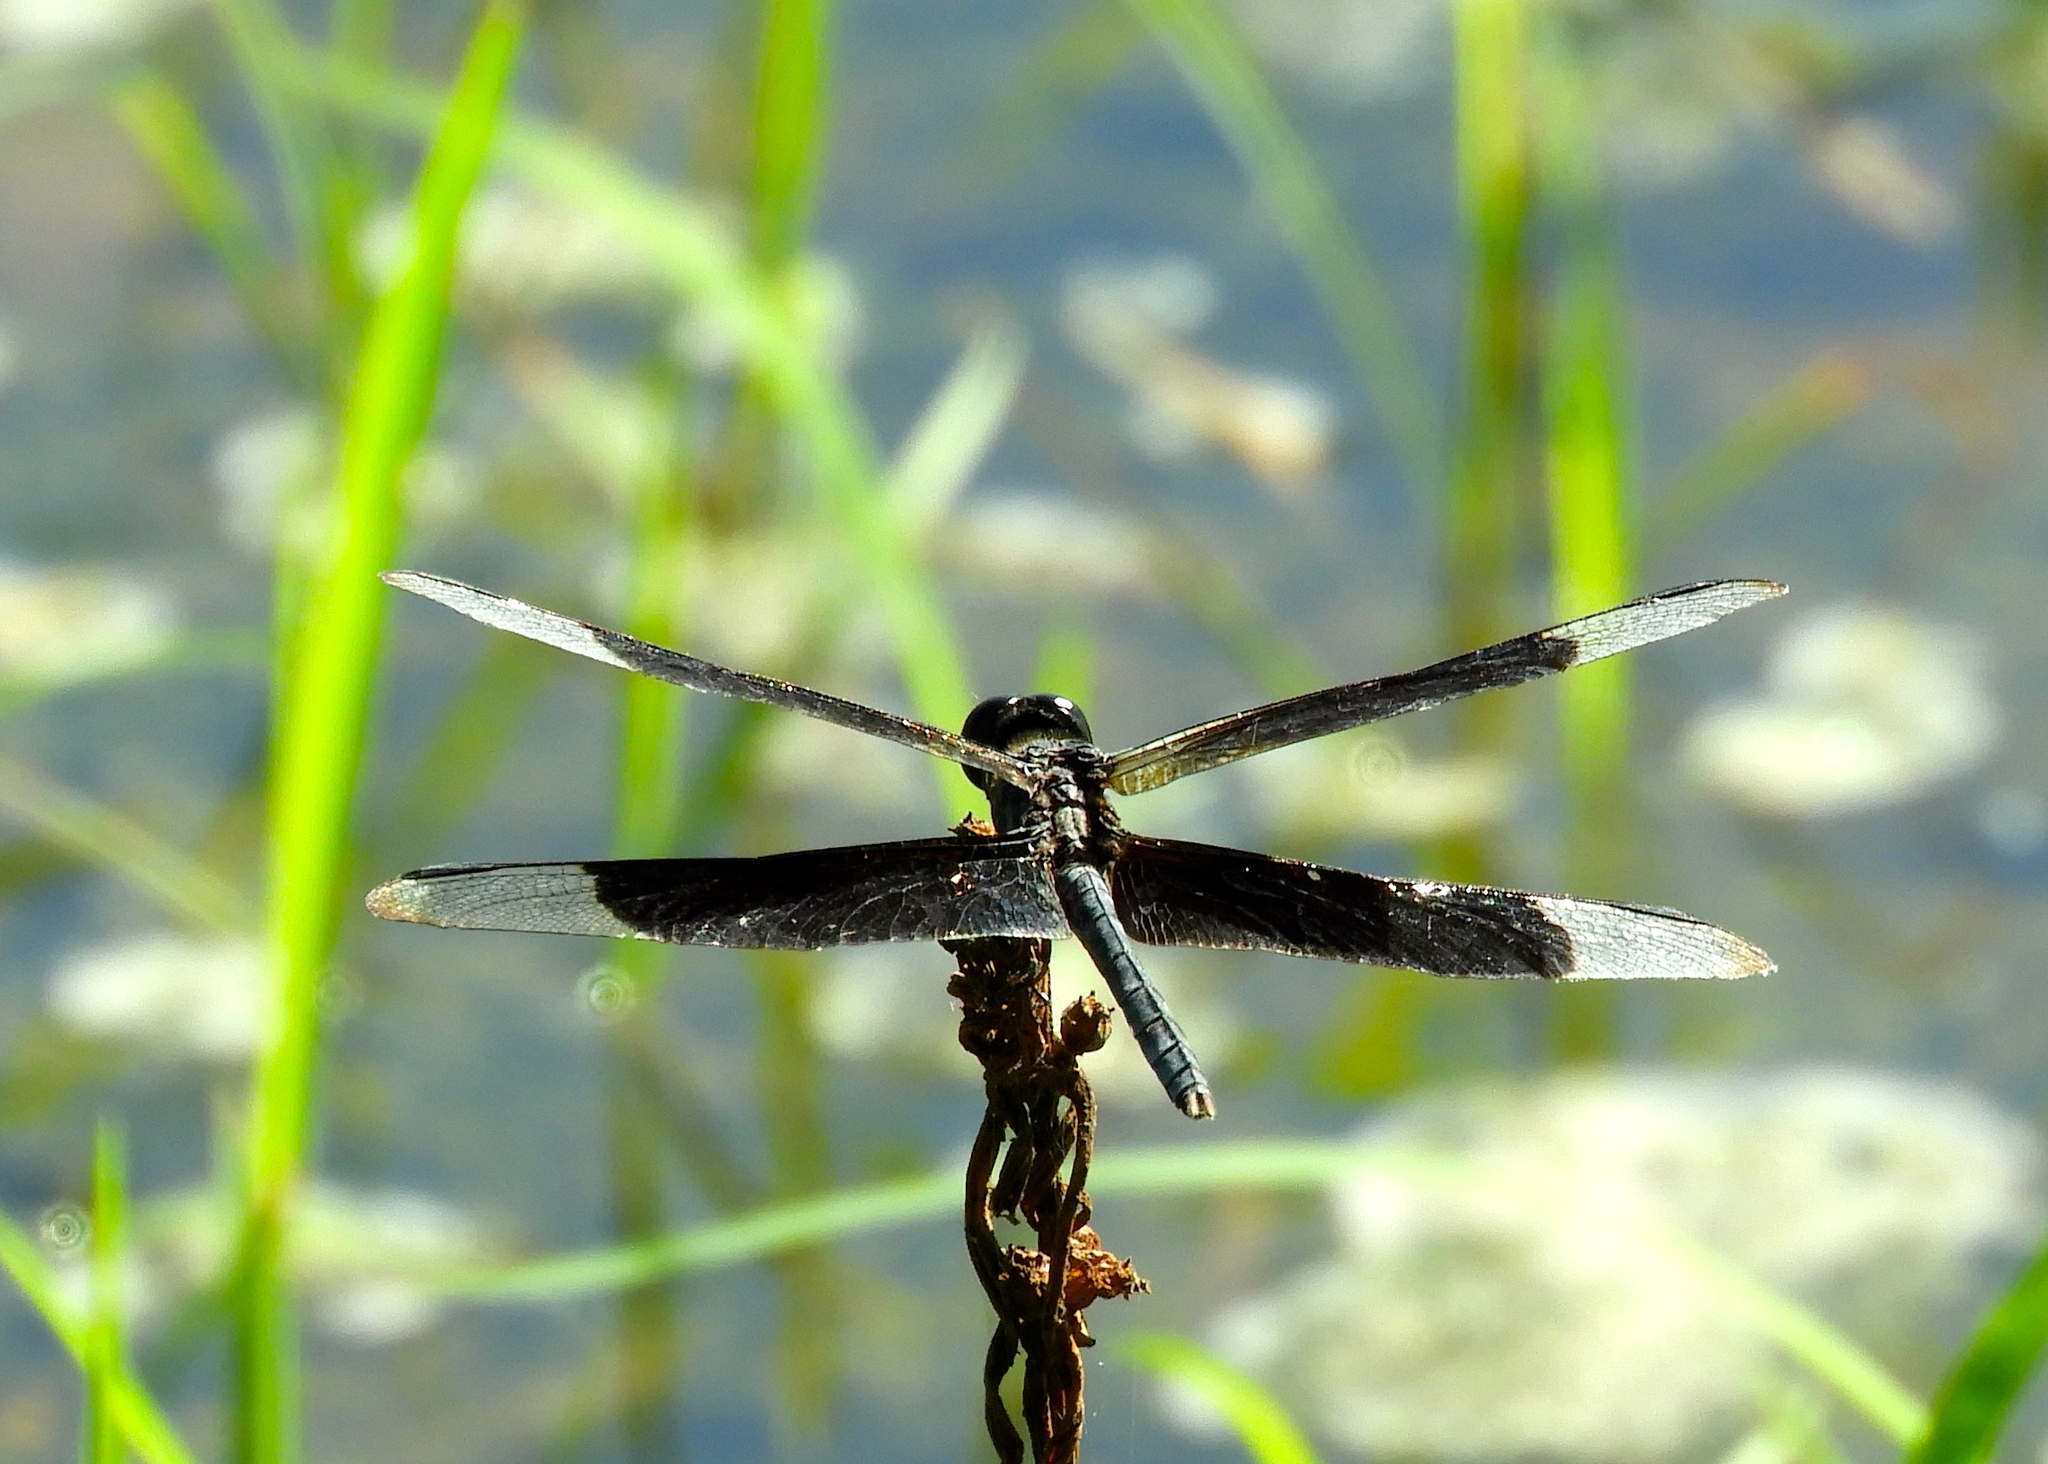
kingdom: Animalia
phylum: Arthropoda
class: Insecta
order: Odonata
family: Libellulidae
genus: Erythrodiplax
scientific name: Erythrodiplax funerea
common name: Black-winged dragonlet
